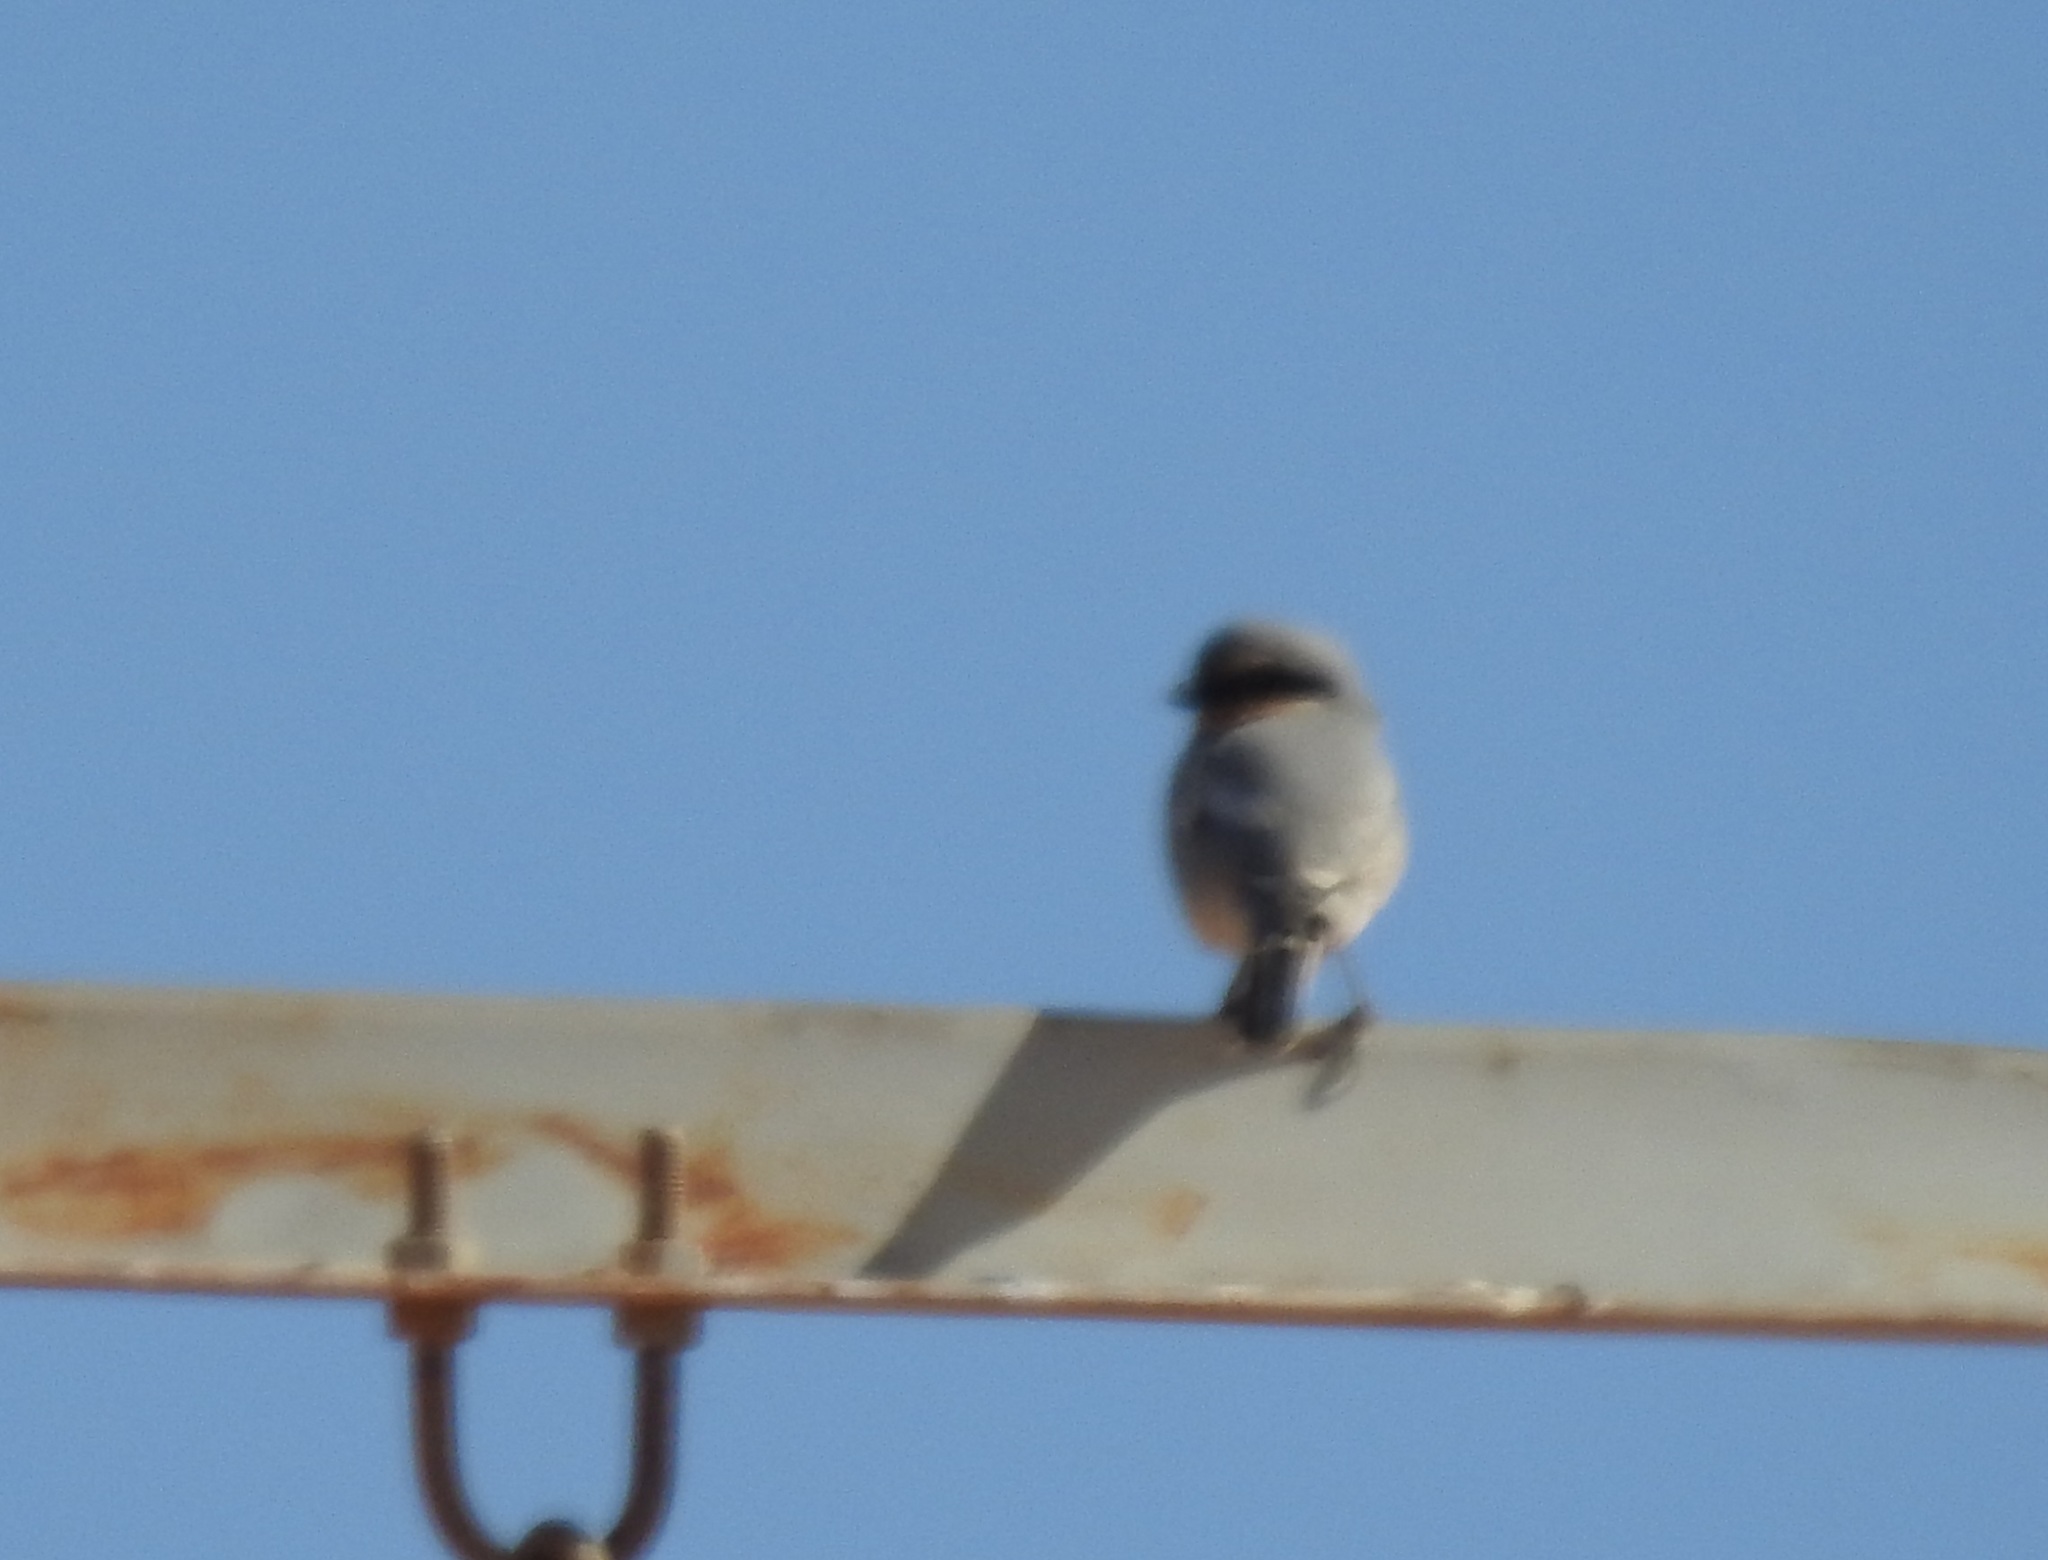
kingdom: Animalia
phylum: Chordata
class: Aves
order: Passeriformes
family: Laniidae
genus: Lanius
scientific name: Lanius excubitor
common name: Great grey shrike
